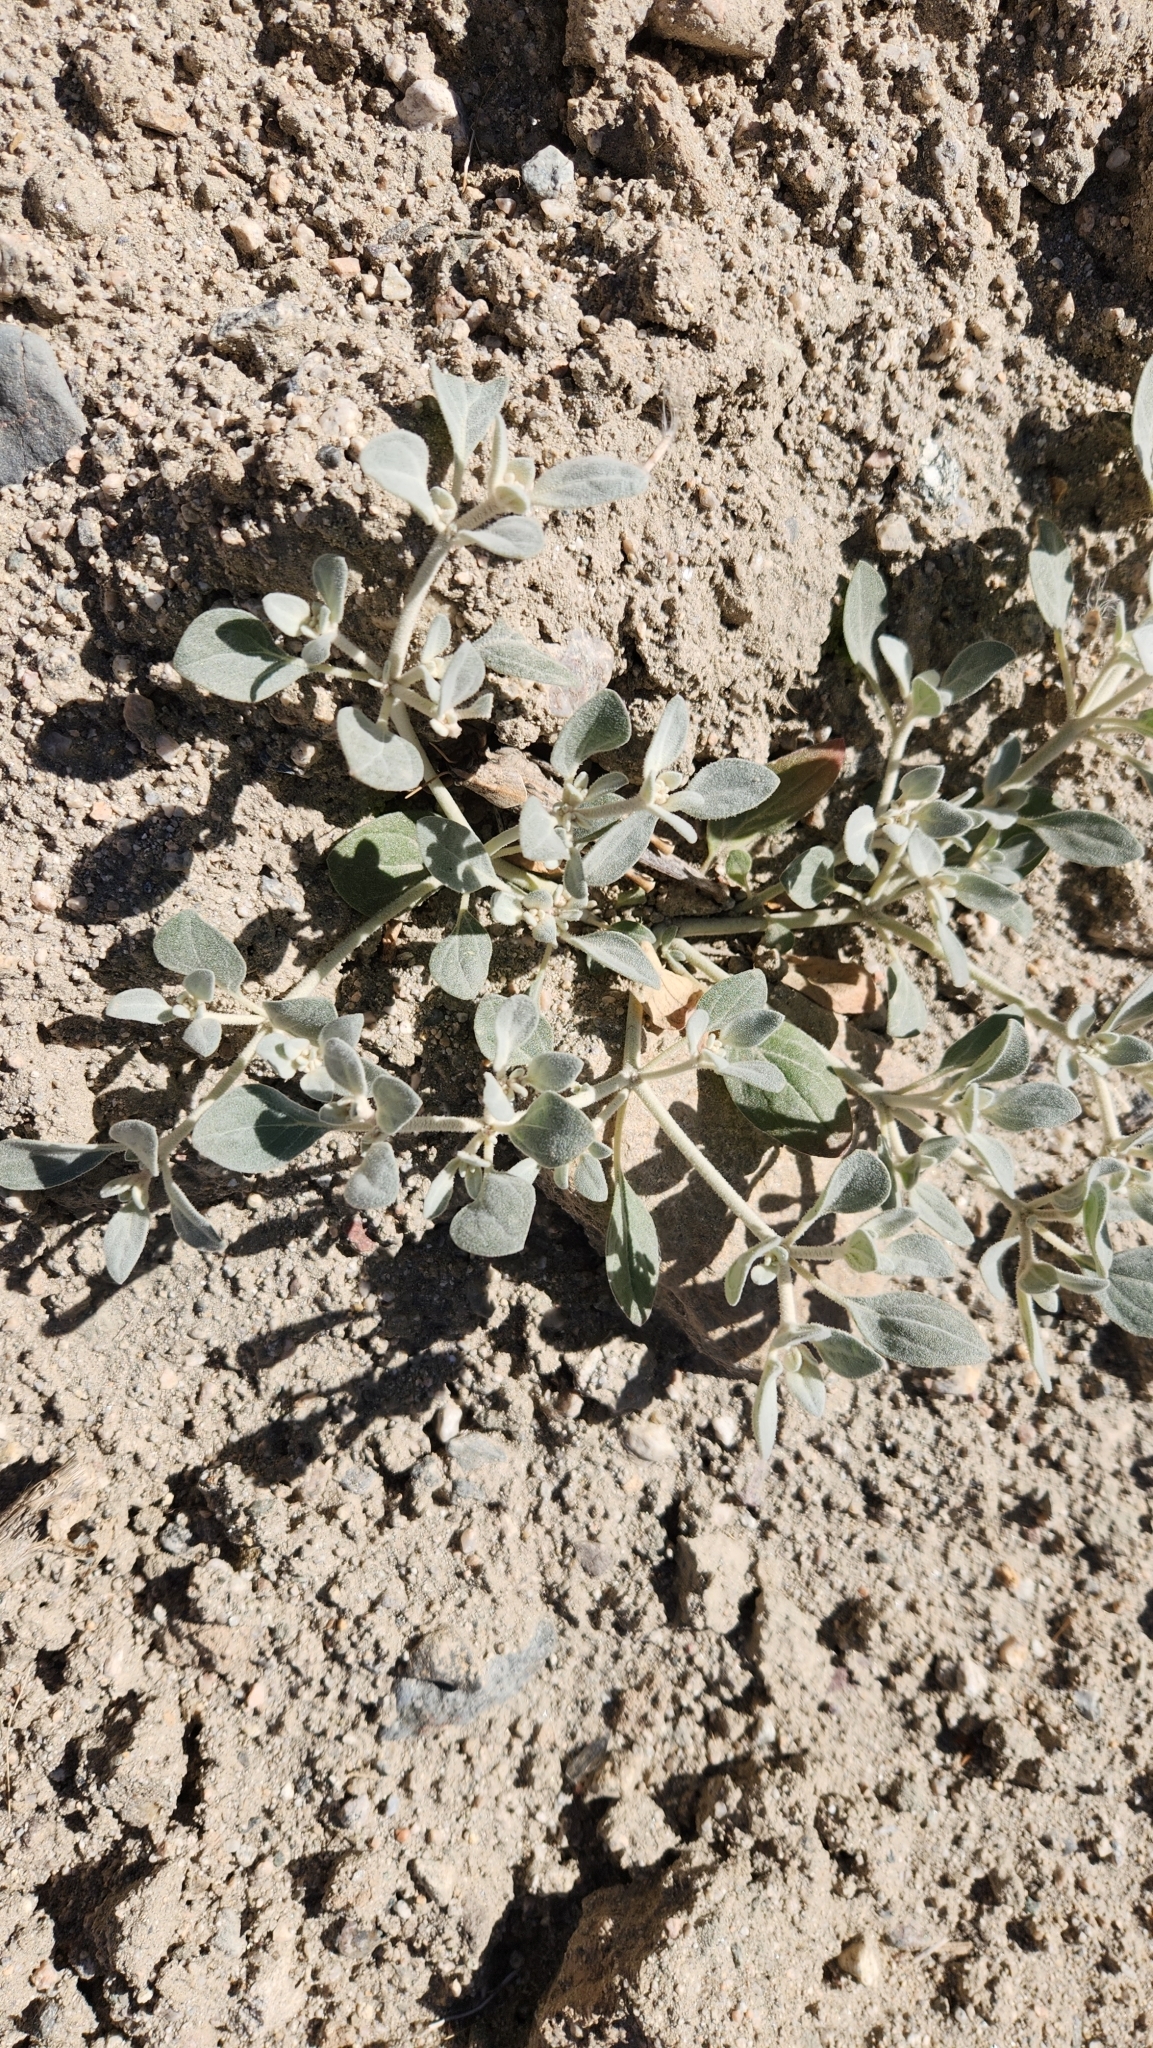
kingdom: Plantae
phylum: Tracheophyta
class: Magnoliopsida
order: Caryophyllales
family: Amaranthaceae
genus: Tidestromia
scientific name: Tidestromia suffruticosa
